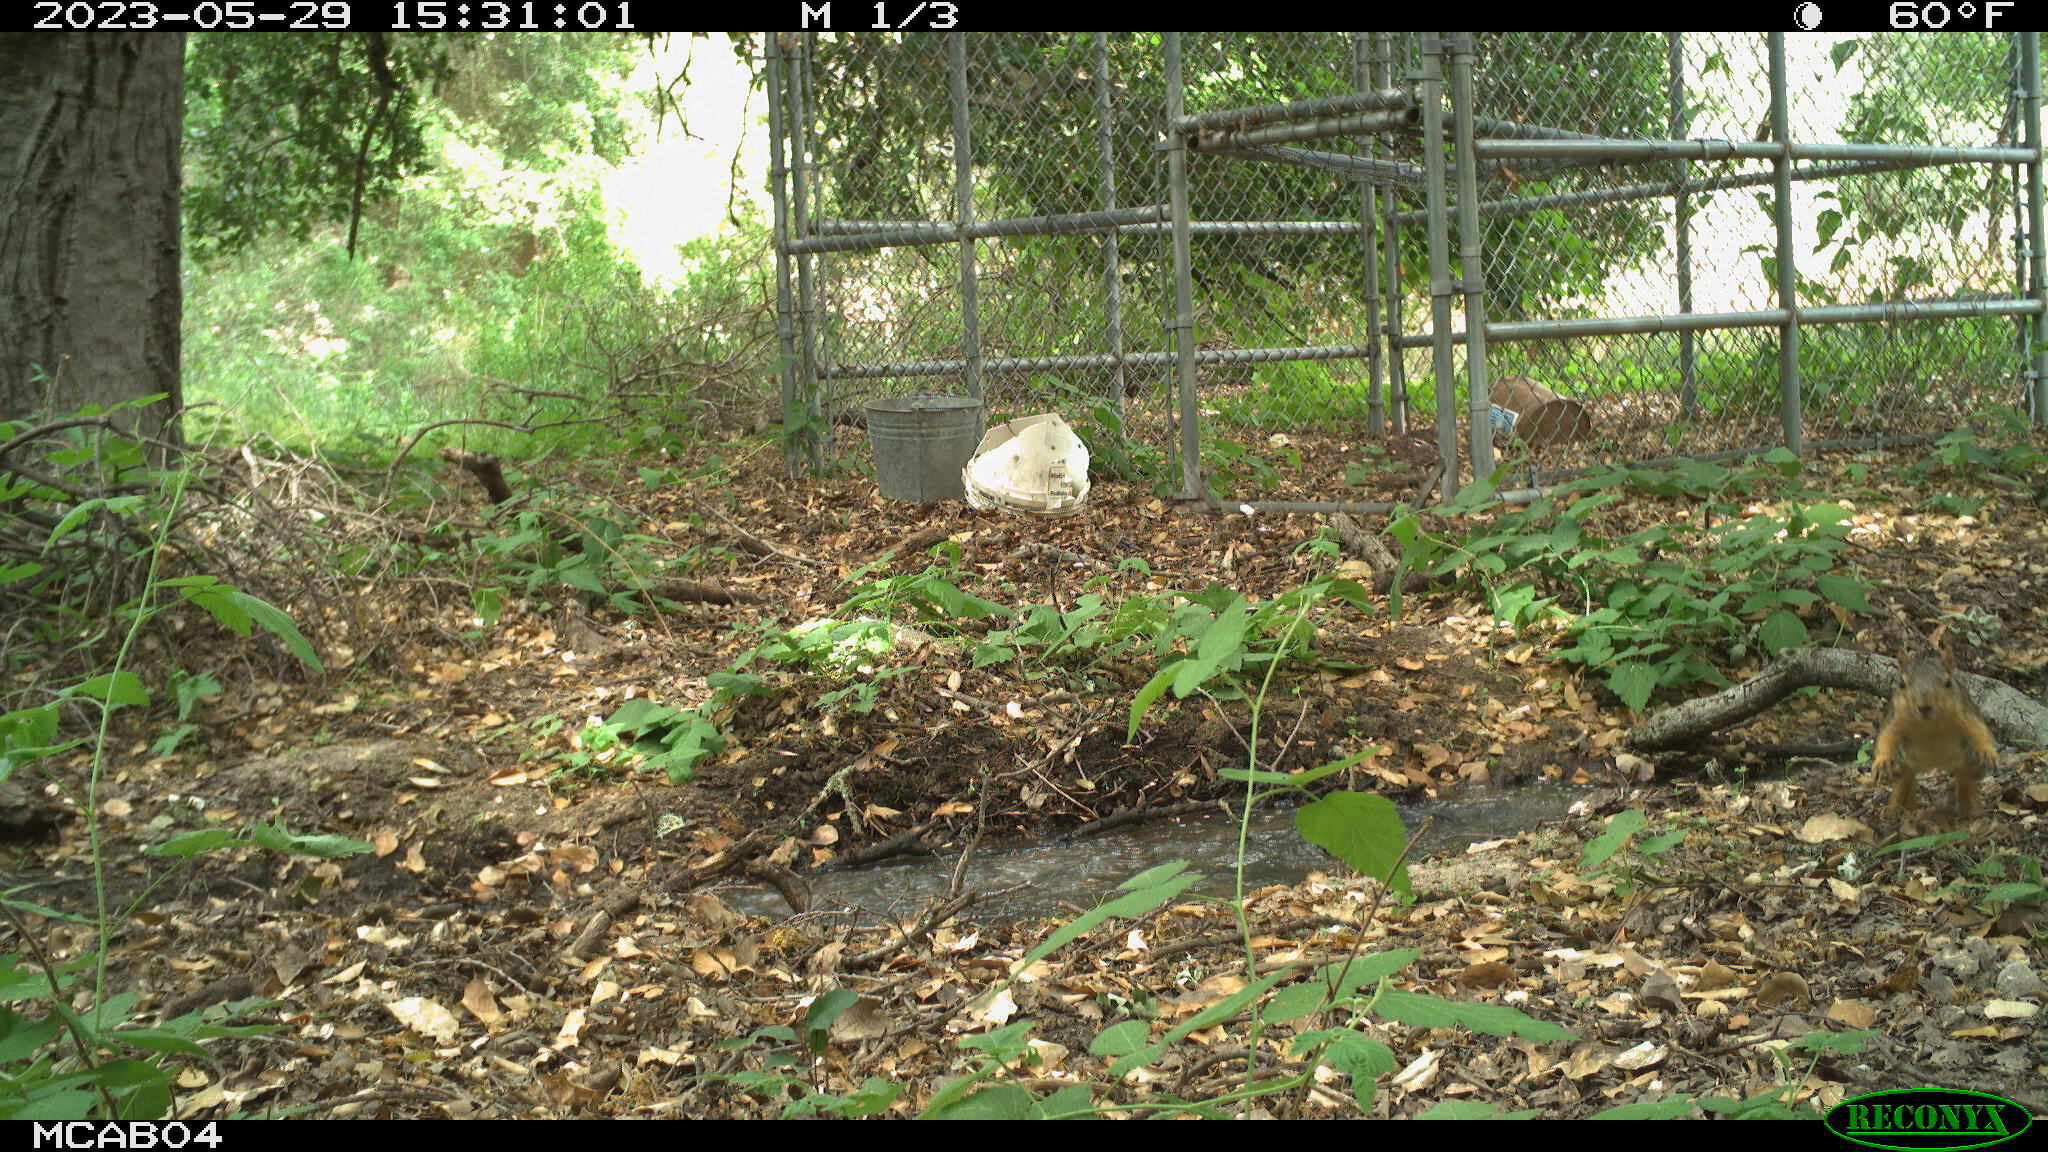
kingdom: Animalia
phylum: Chordata
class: Mammalia
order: Rodentia
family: Sciuridae
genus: Sciurus
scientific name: Sciurus niger
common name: Fox squirrel
